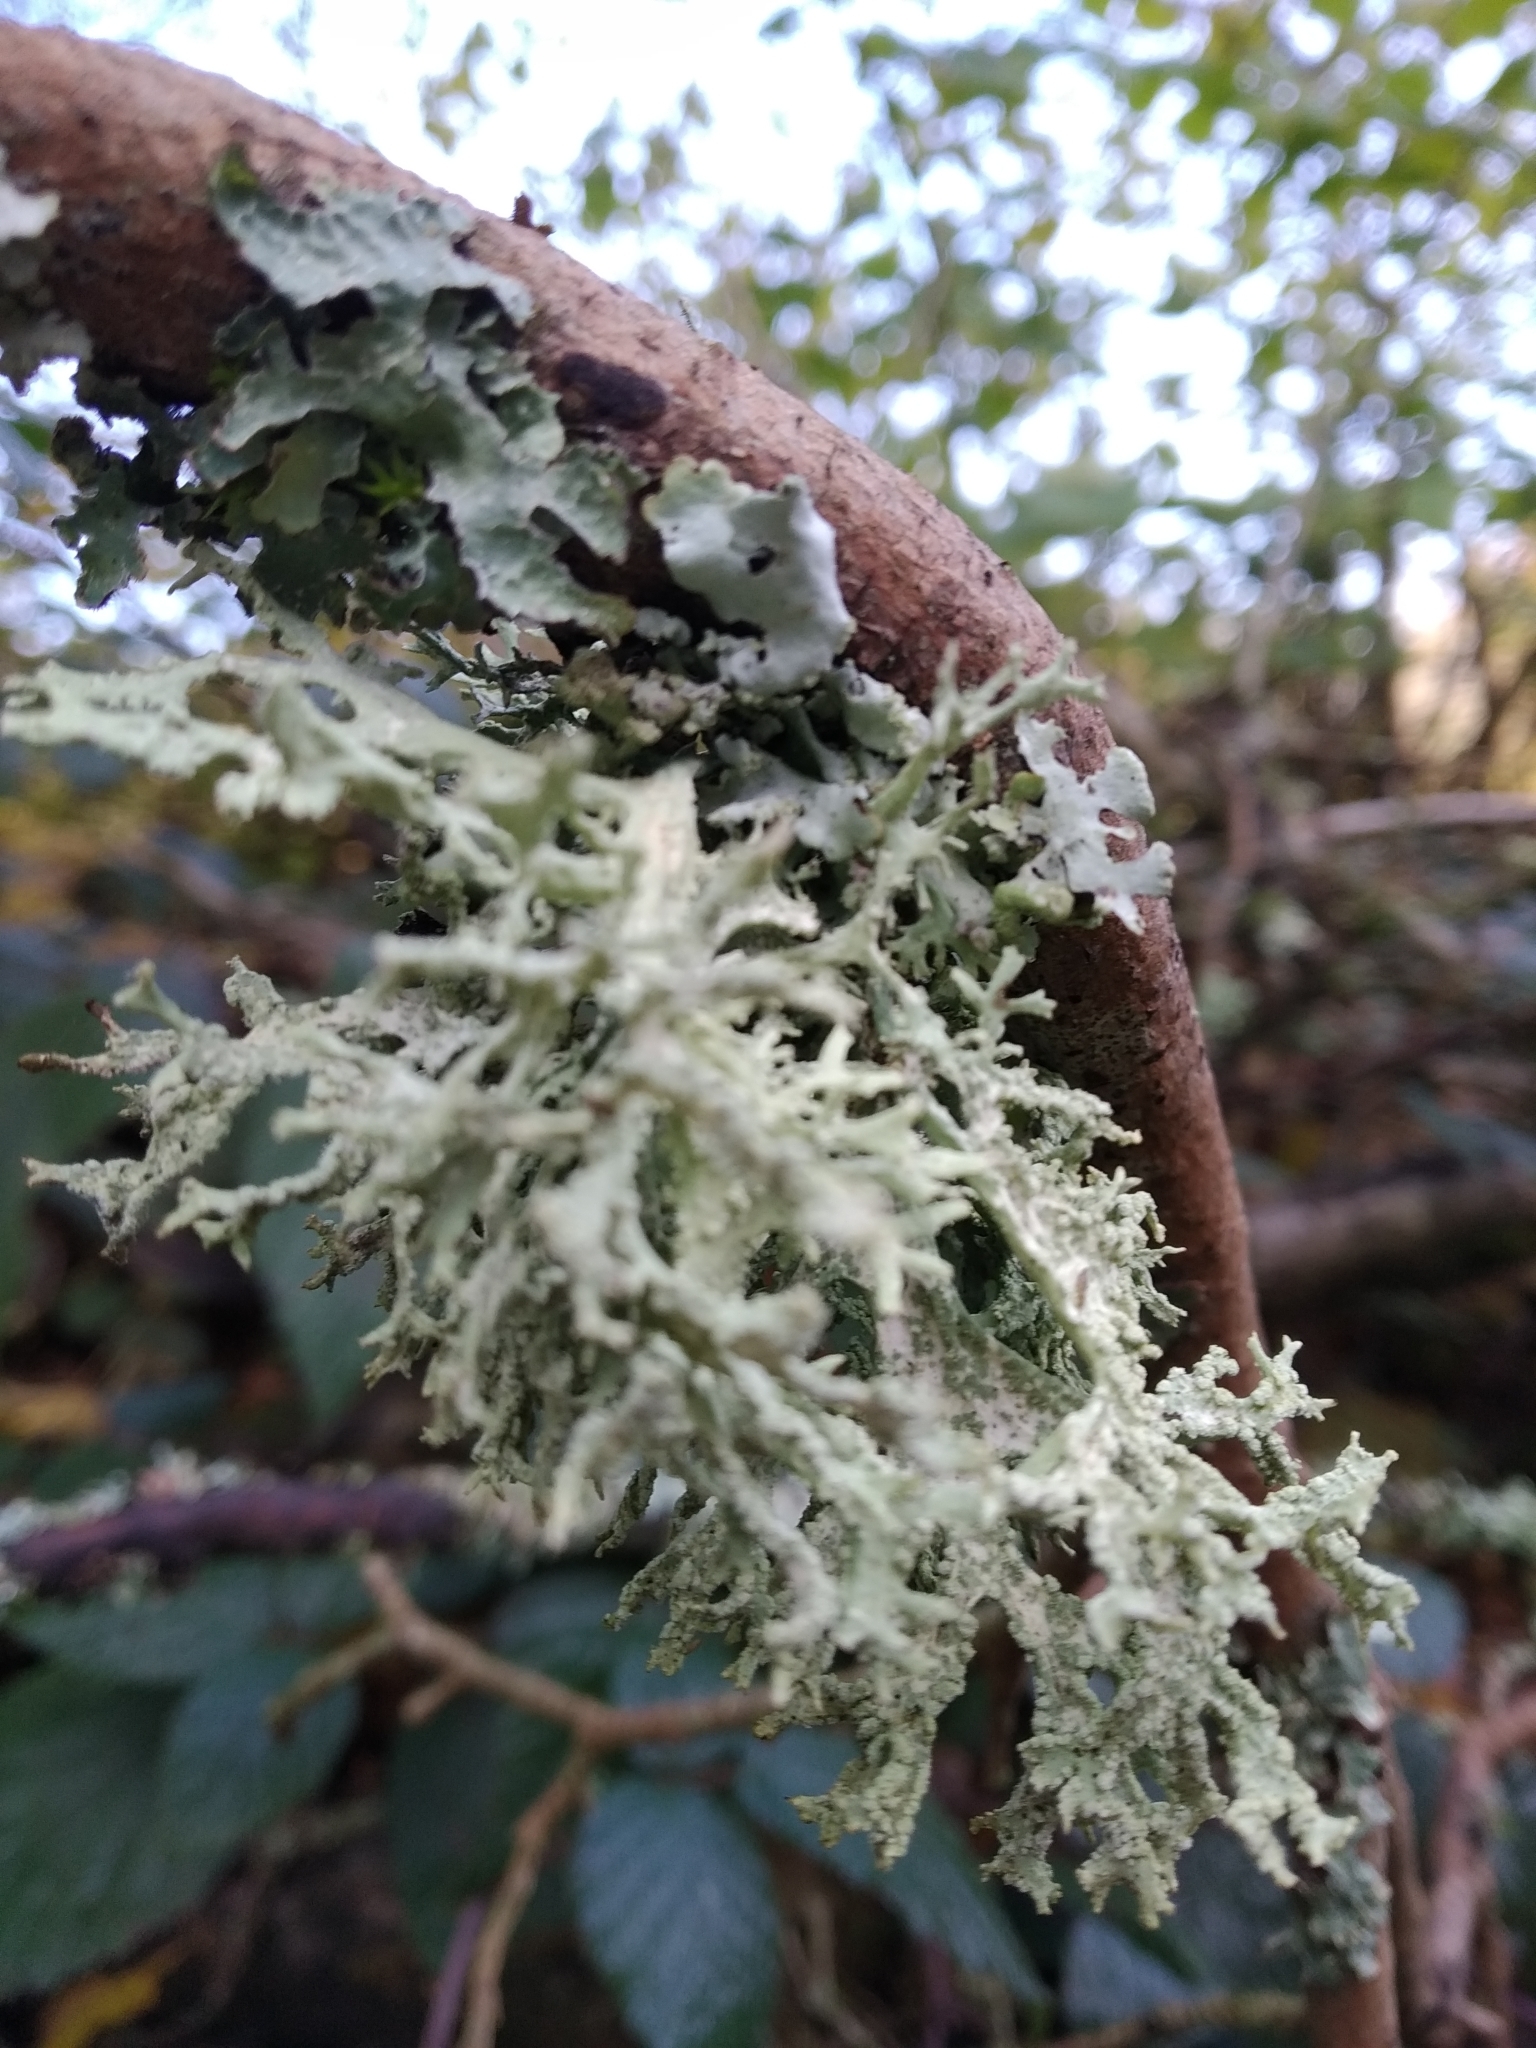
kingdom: Fungi
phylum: Ascomycota
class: Lecanoromycetes
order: Lecanorales
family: Parmeliaceae
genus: Evernia
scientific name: Evernia prunastri
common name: Oak moss
